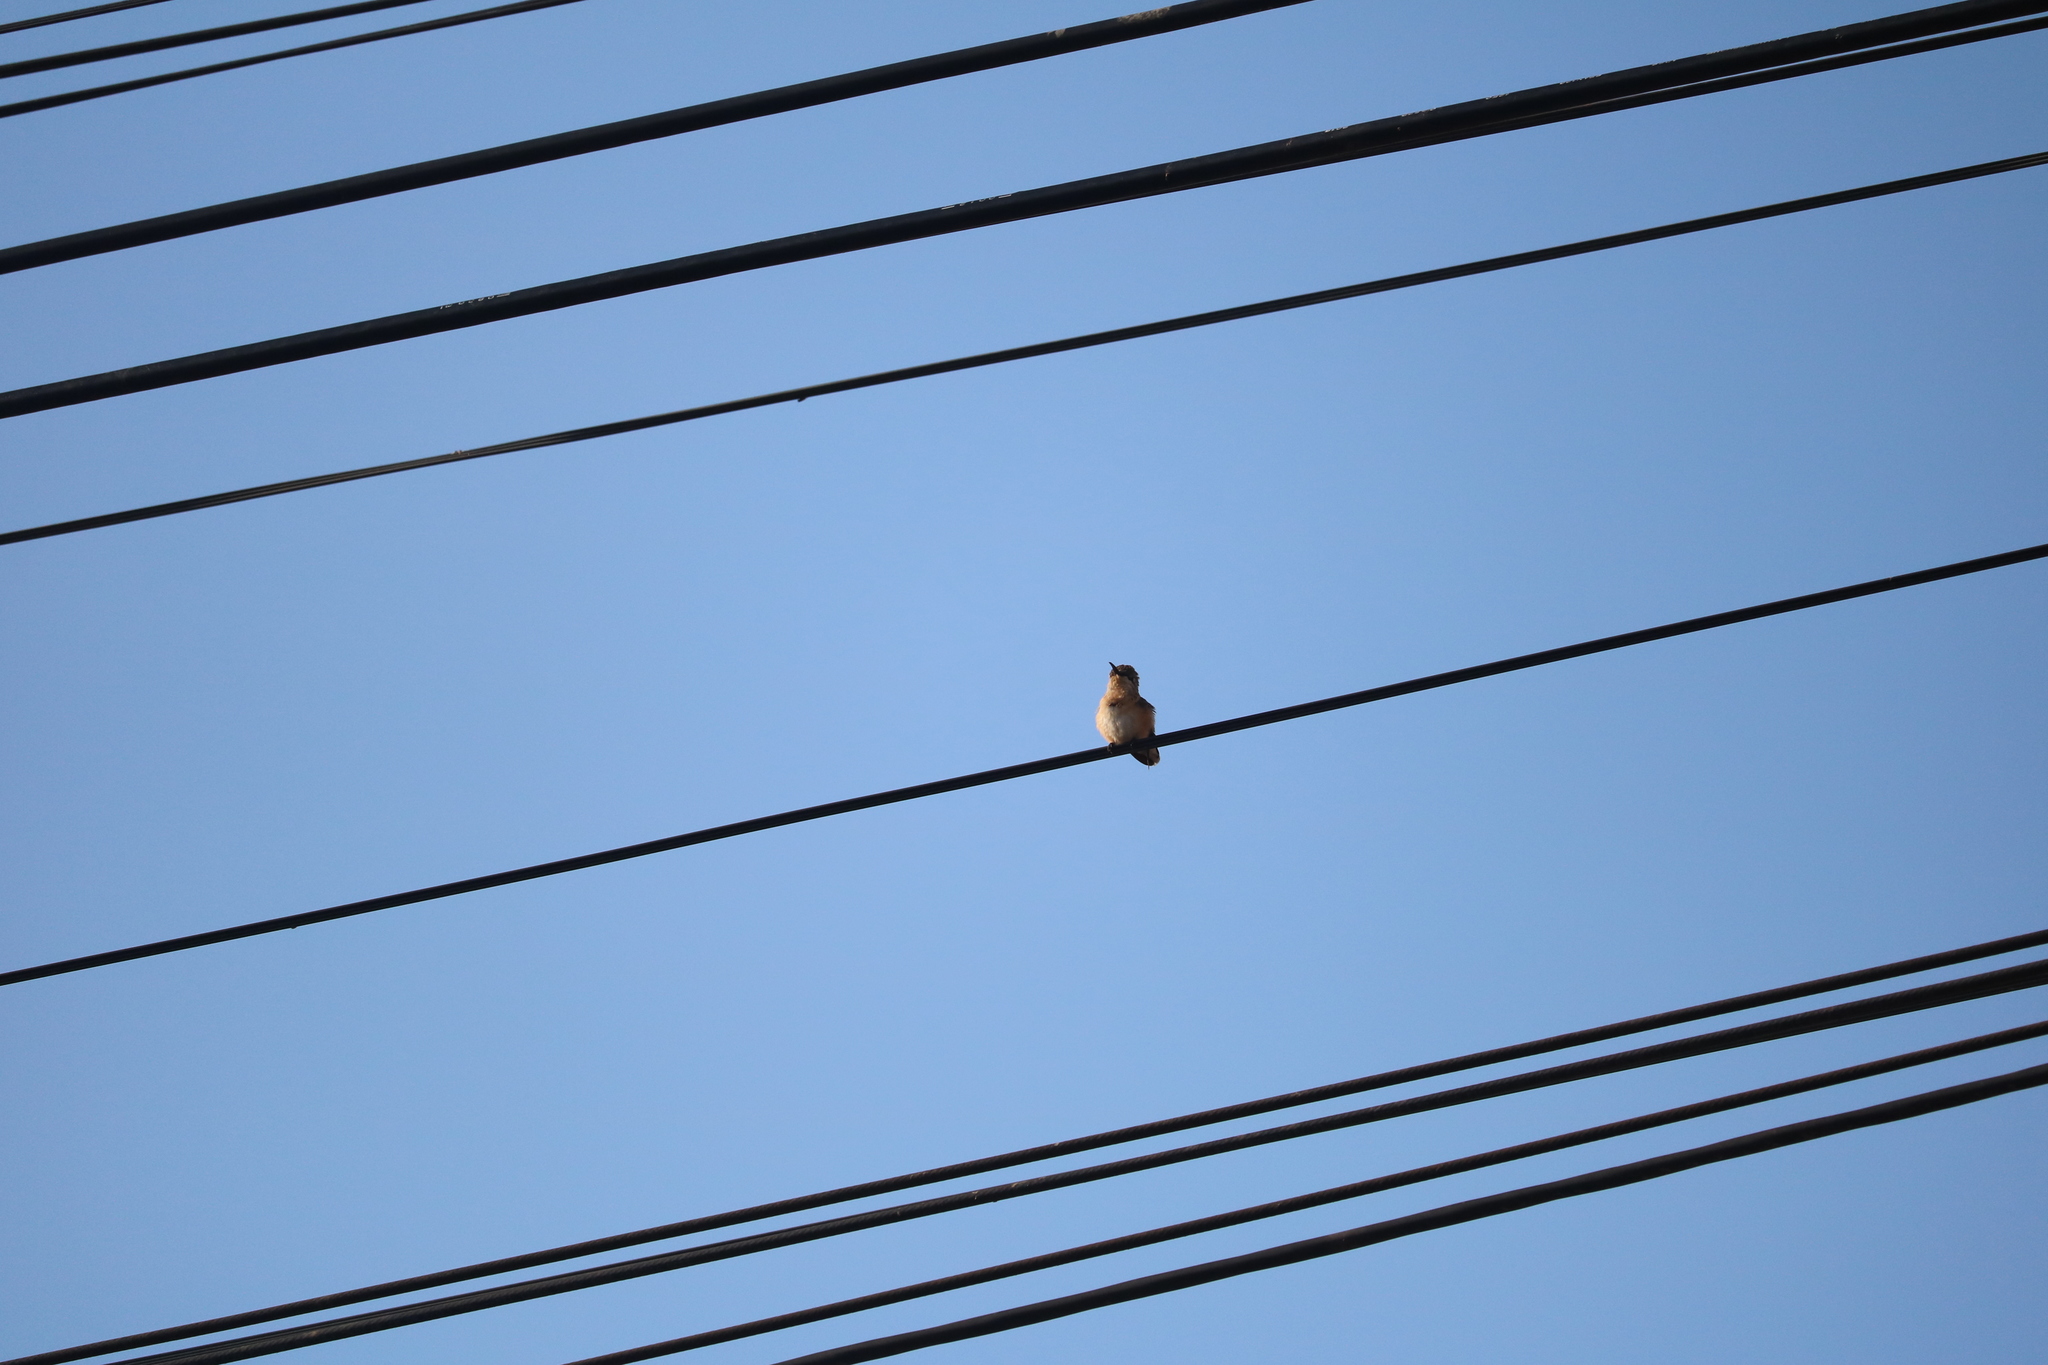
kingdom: Animalia
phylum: Chordata
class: Aves
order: Apodiformes
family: Trochilidae
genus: Myrmia
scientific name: Myrmia micrura
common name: Short-tailed woodstar
